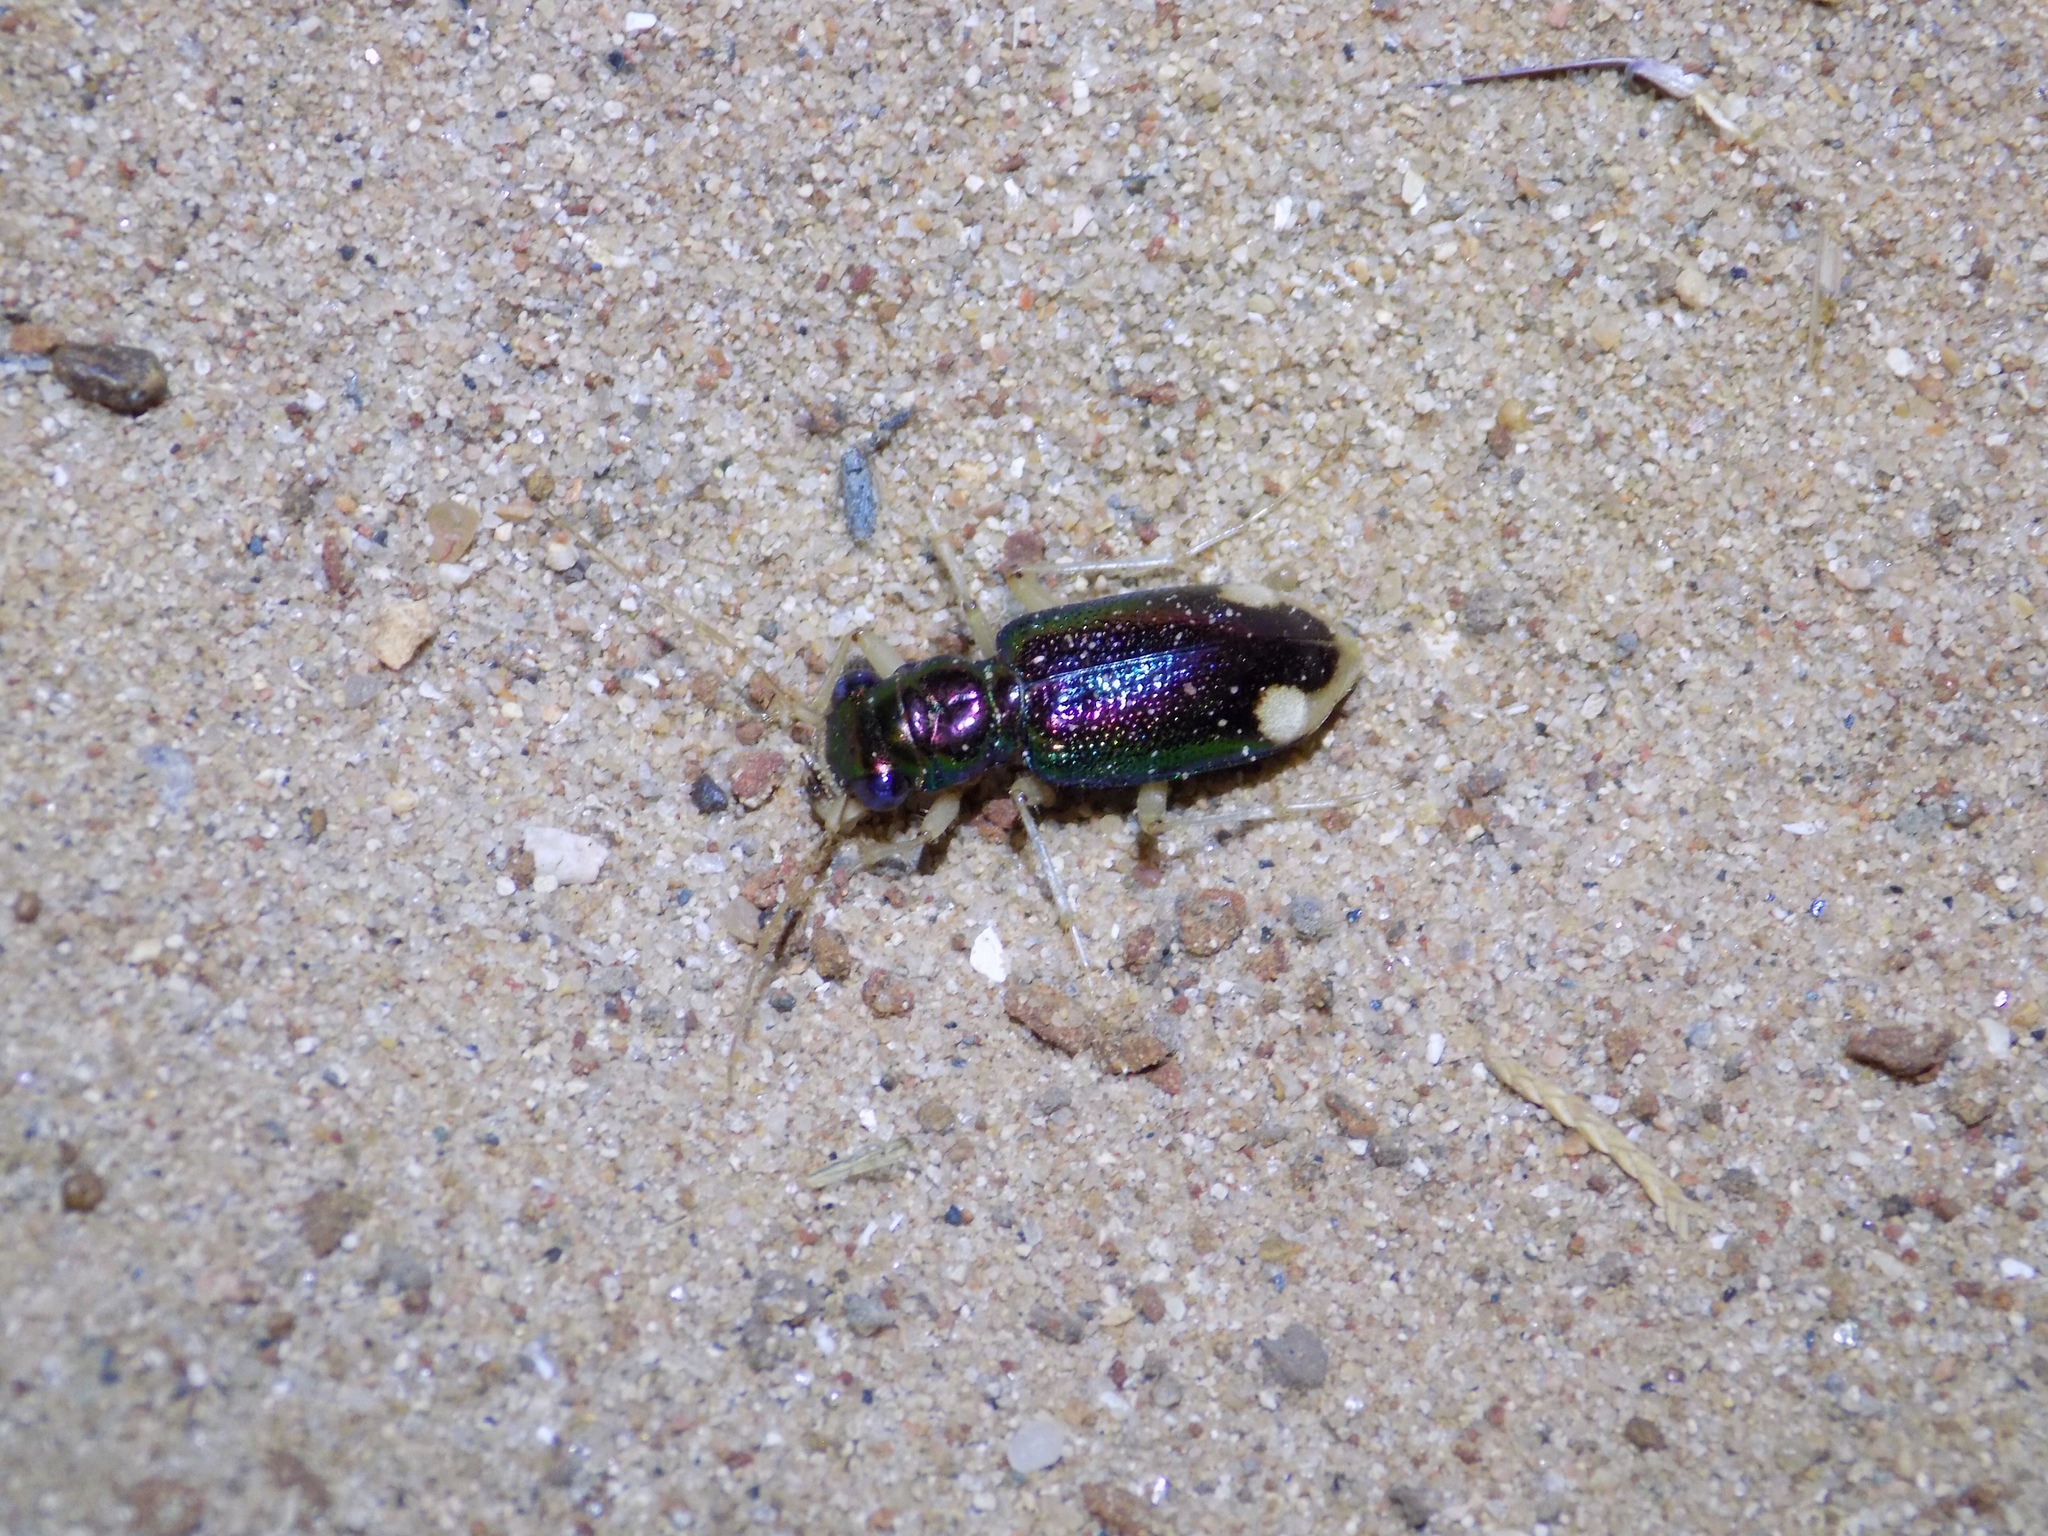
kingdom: Animalia
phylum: Arthropoda
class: Insecta
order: Coleoptera
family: Carabidae
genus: Tetracha
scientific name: Tetracha carolina
